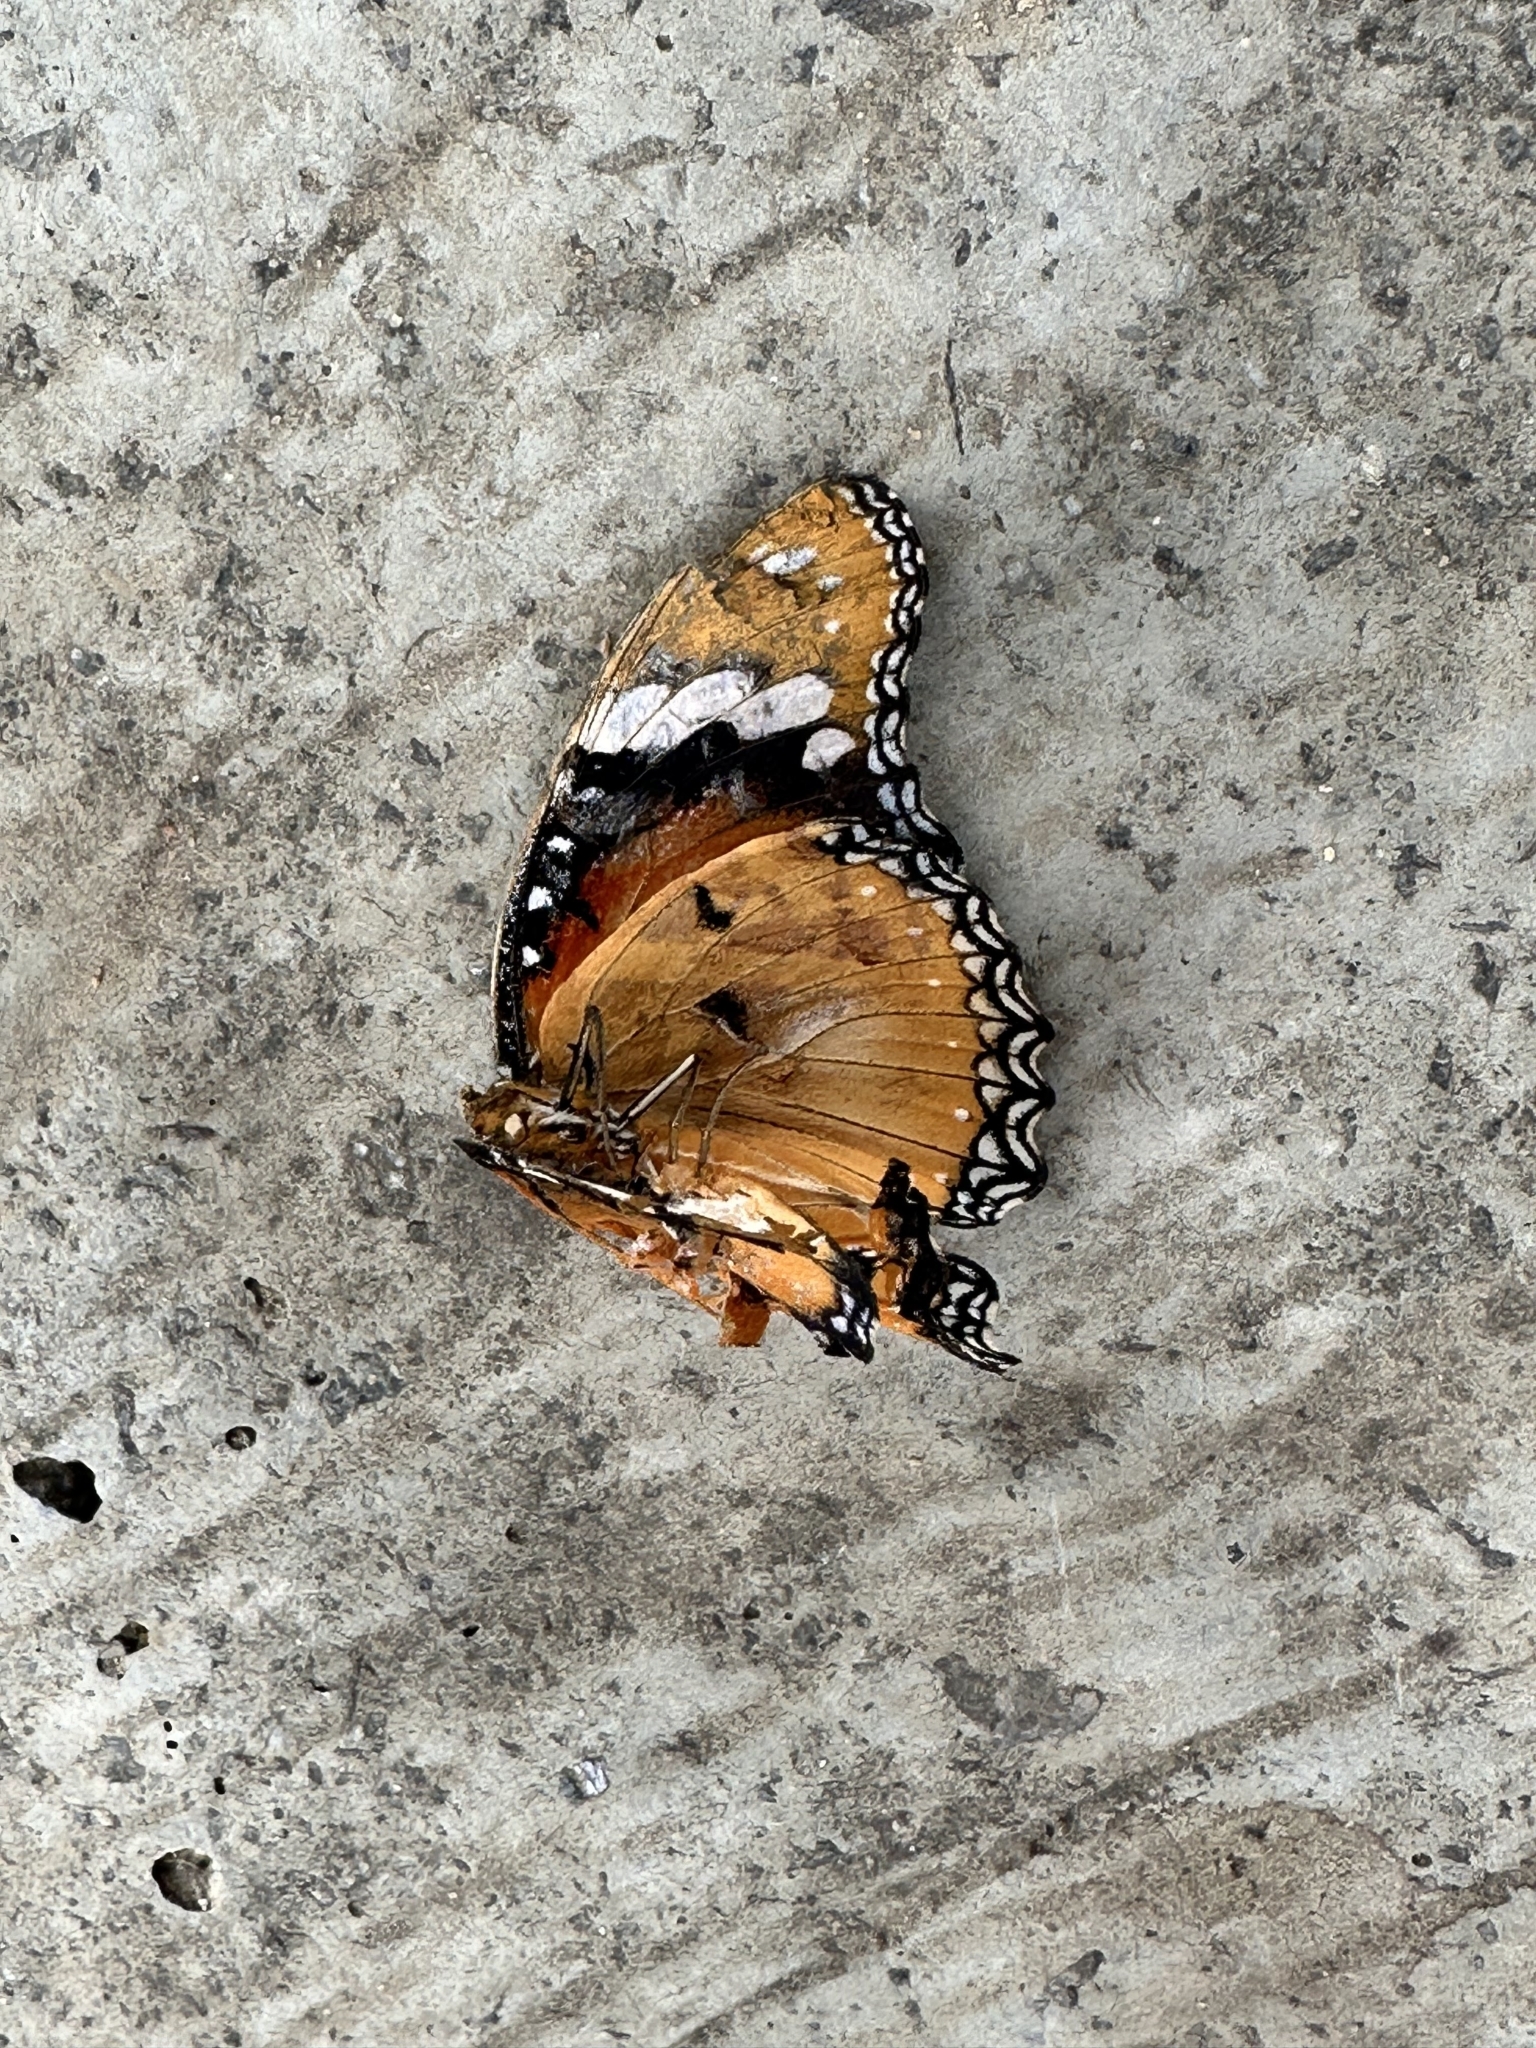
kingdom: Animalia
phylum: Arthropoda
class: Insecta
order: Lepidoptera
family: Nymphalidae
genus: Hypolimnas
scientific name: Hypolimnas misippus
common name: False plain tiger
